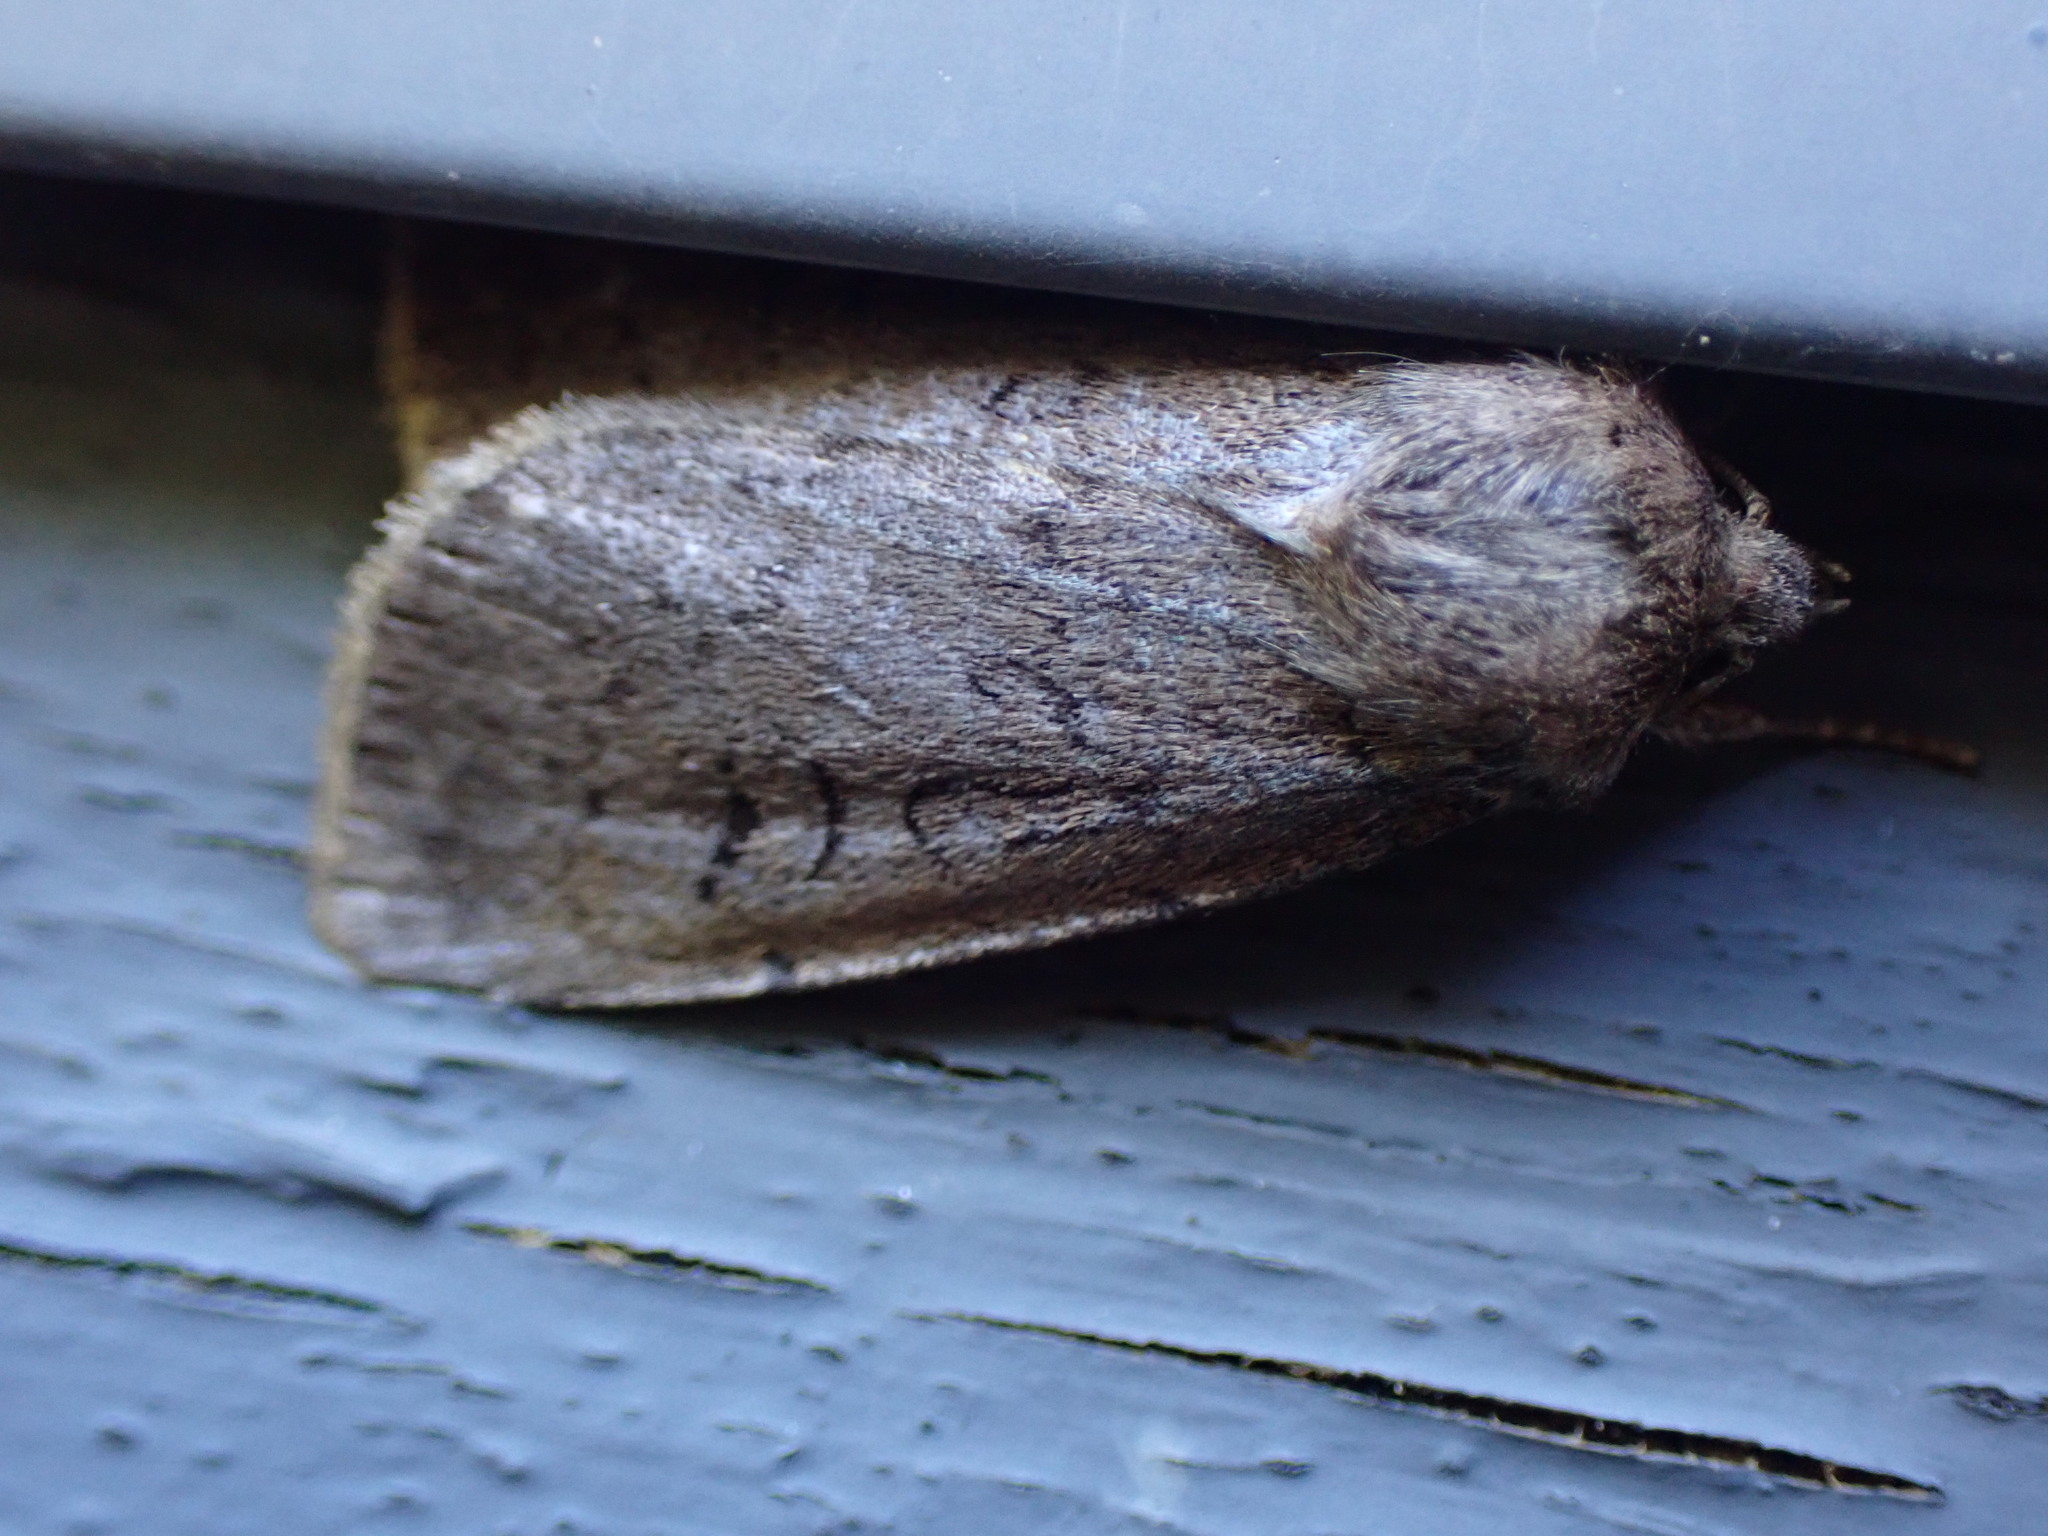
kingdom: Animalia
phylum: Arthropoda
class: Insecta
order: Lepidoptera
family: Noctuidae
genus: Graphiphora
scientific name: Graphiphora augur
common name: Double dart
